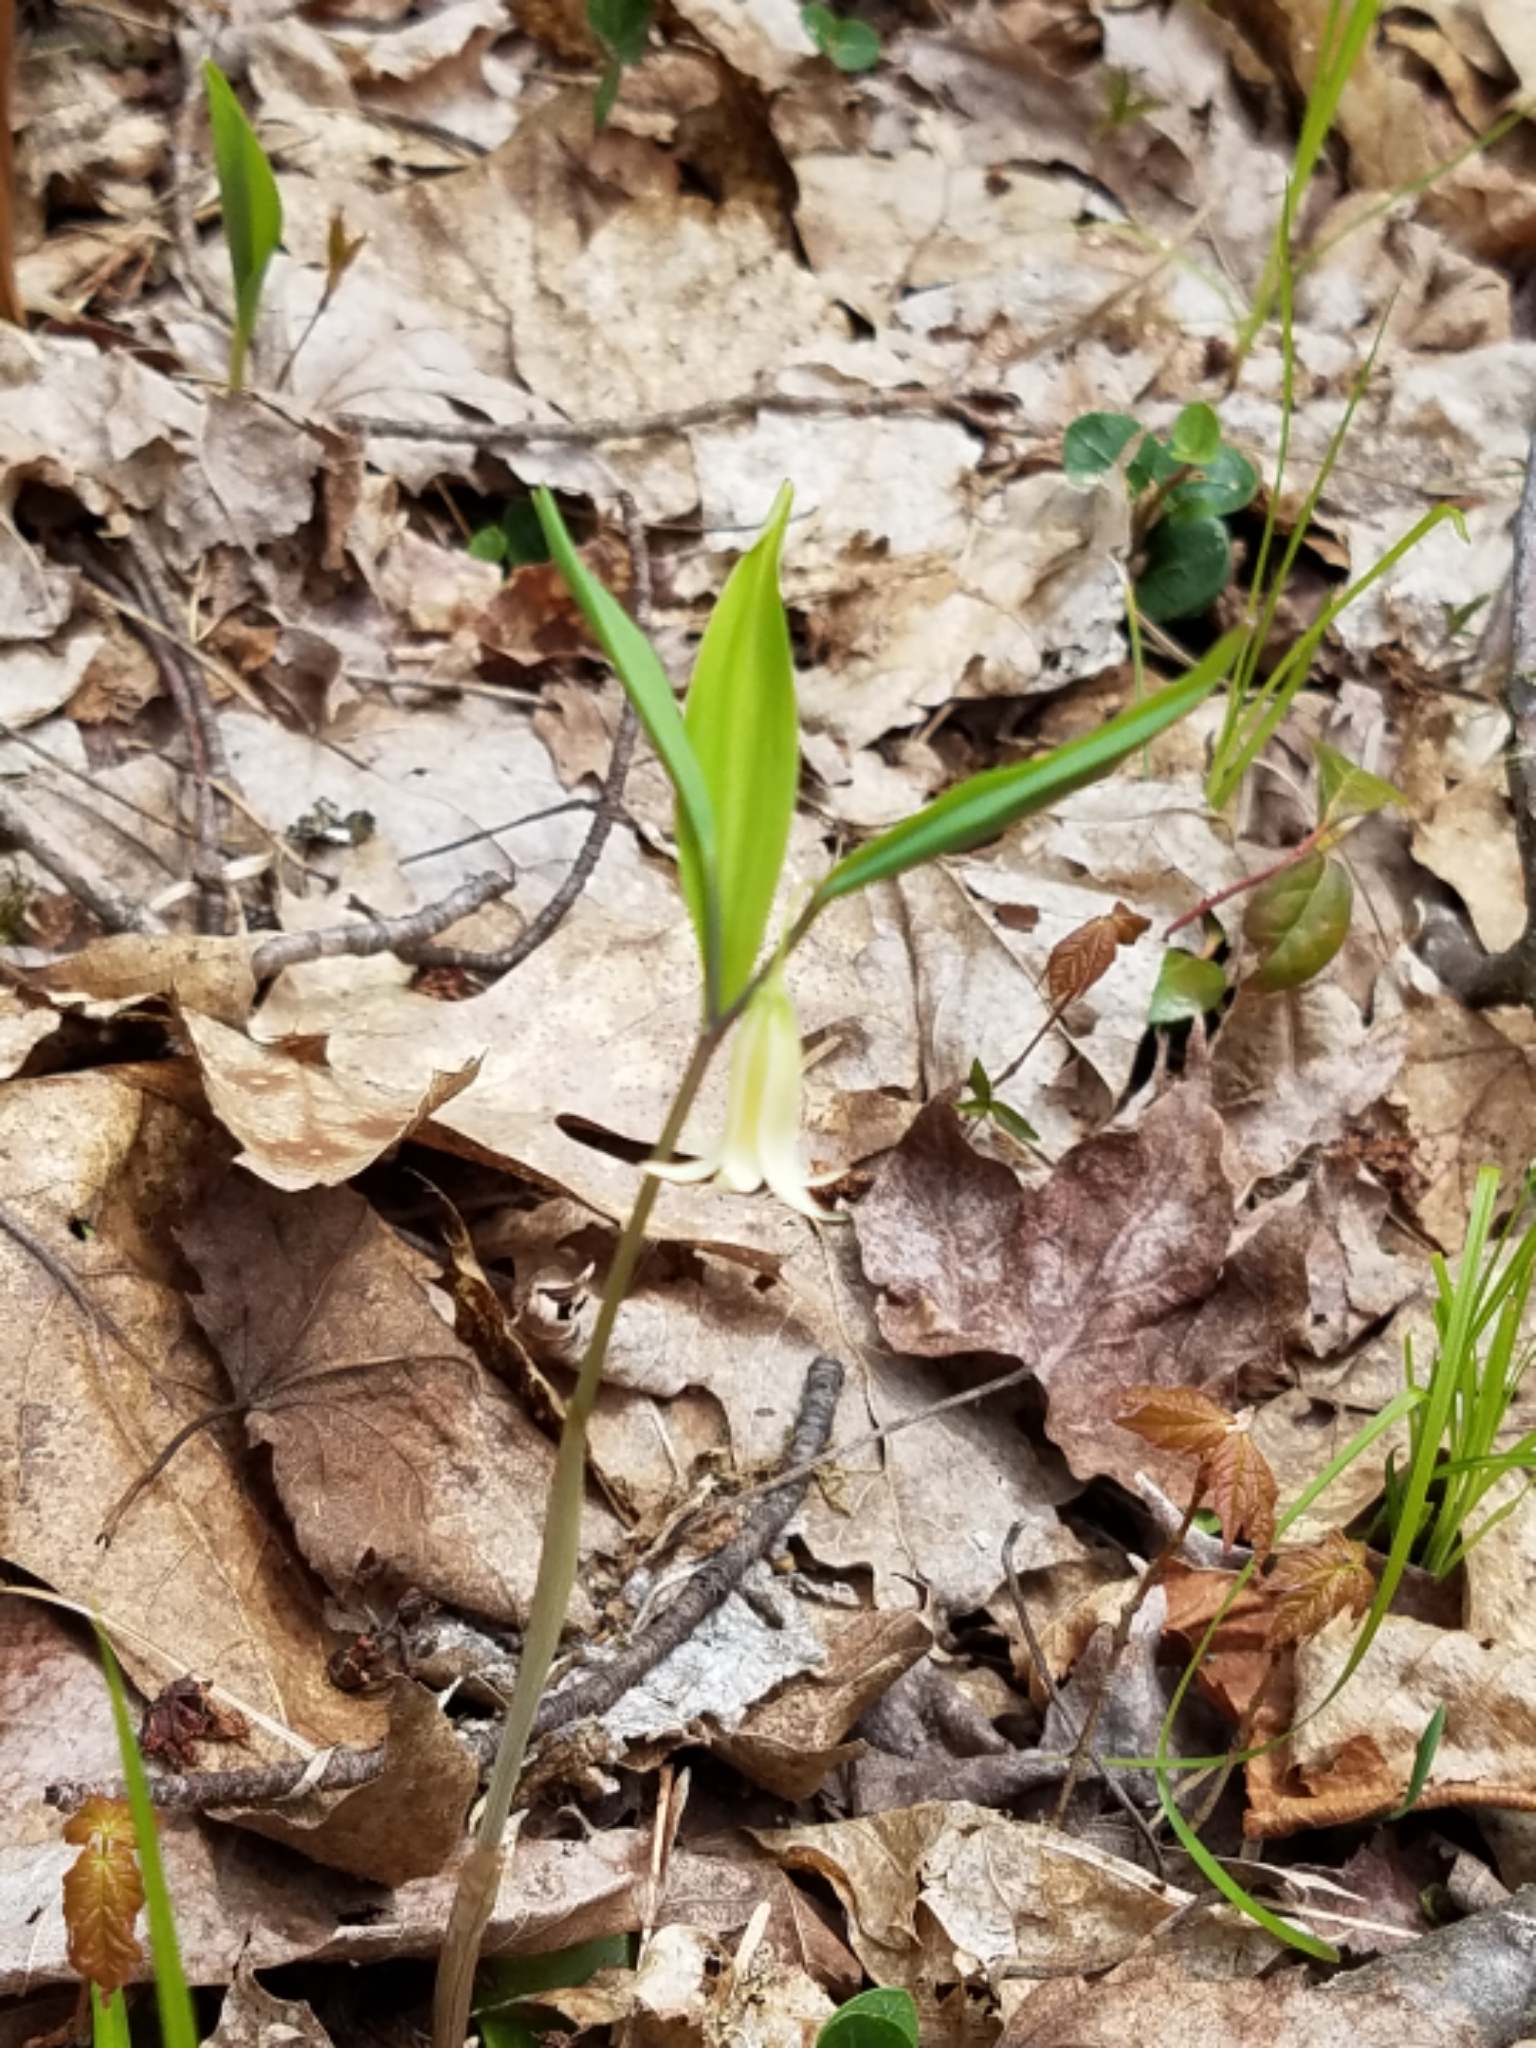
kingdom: Plantae
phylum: Tracheophyta
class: Liliopsida
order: Liliales
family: Colchicaceae
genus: Uvularia
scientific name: Uvularia sessilifolia
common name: Straw-lily
